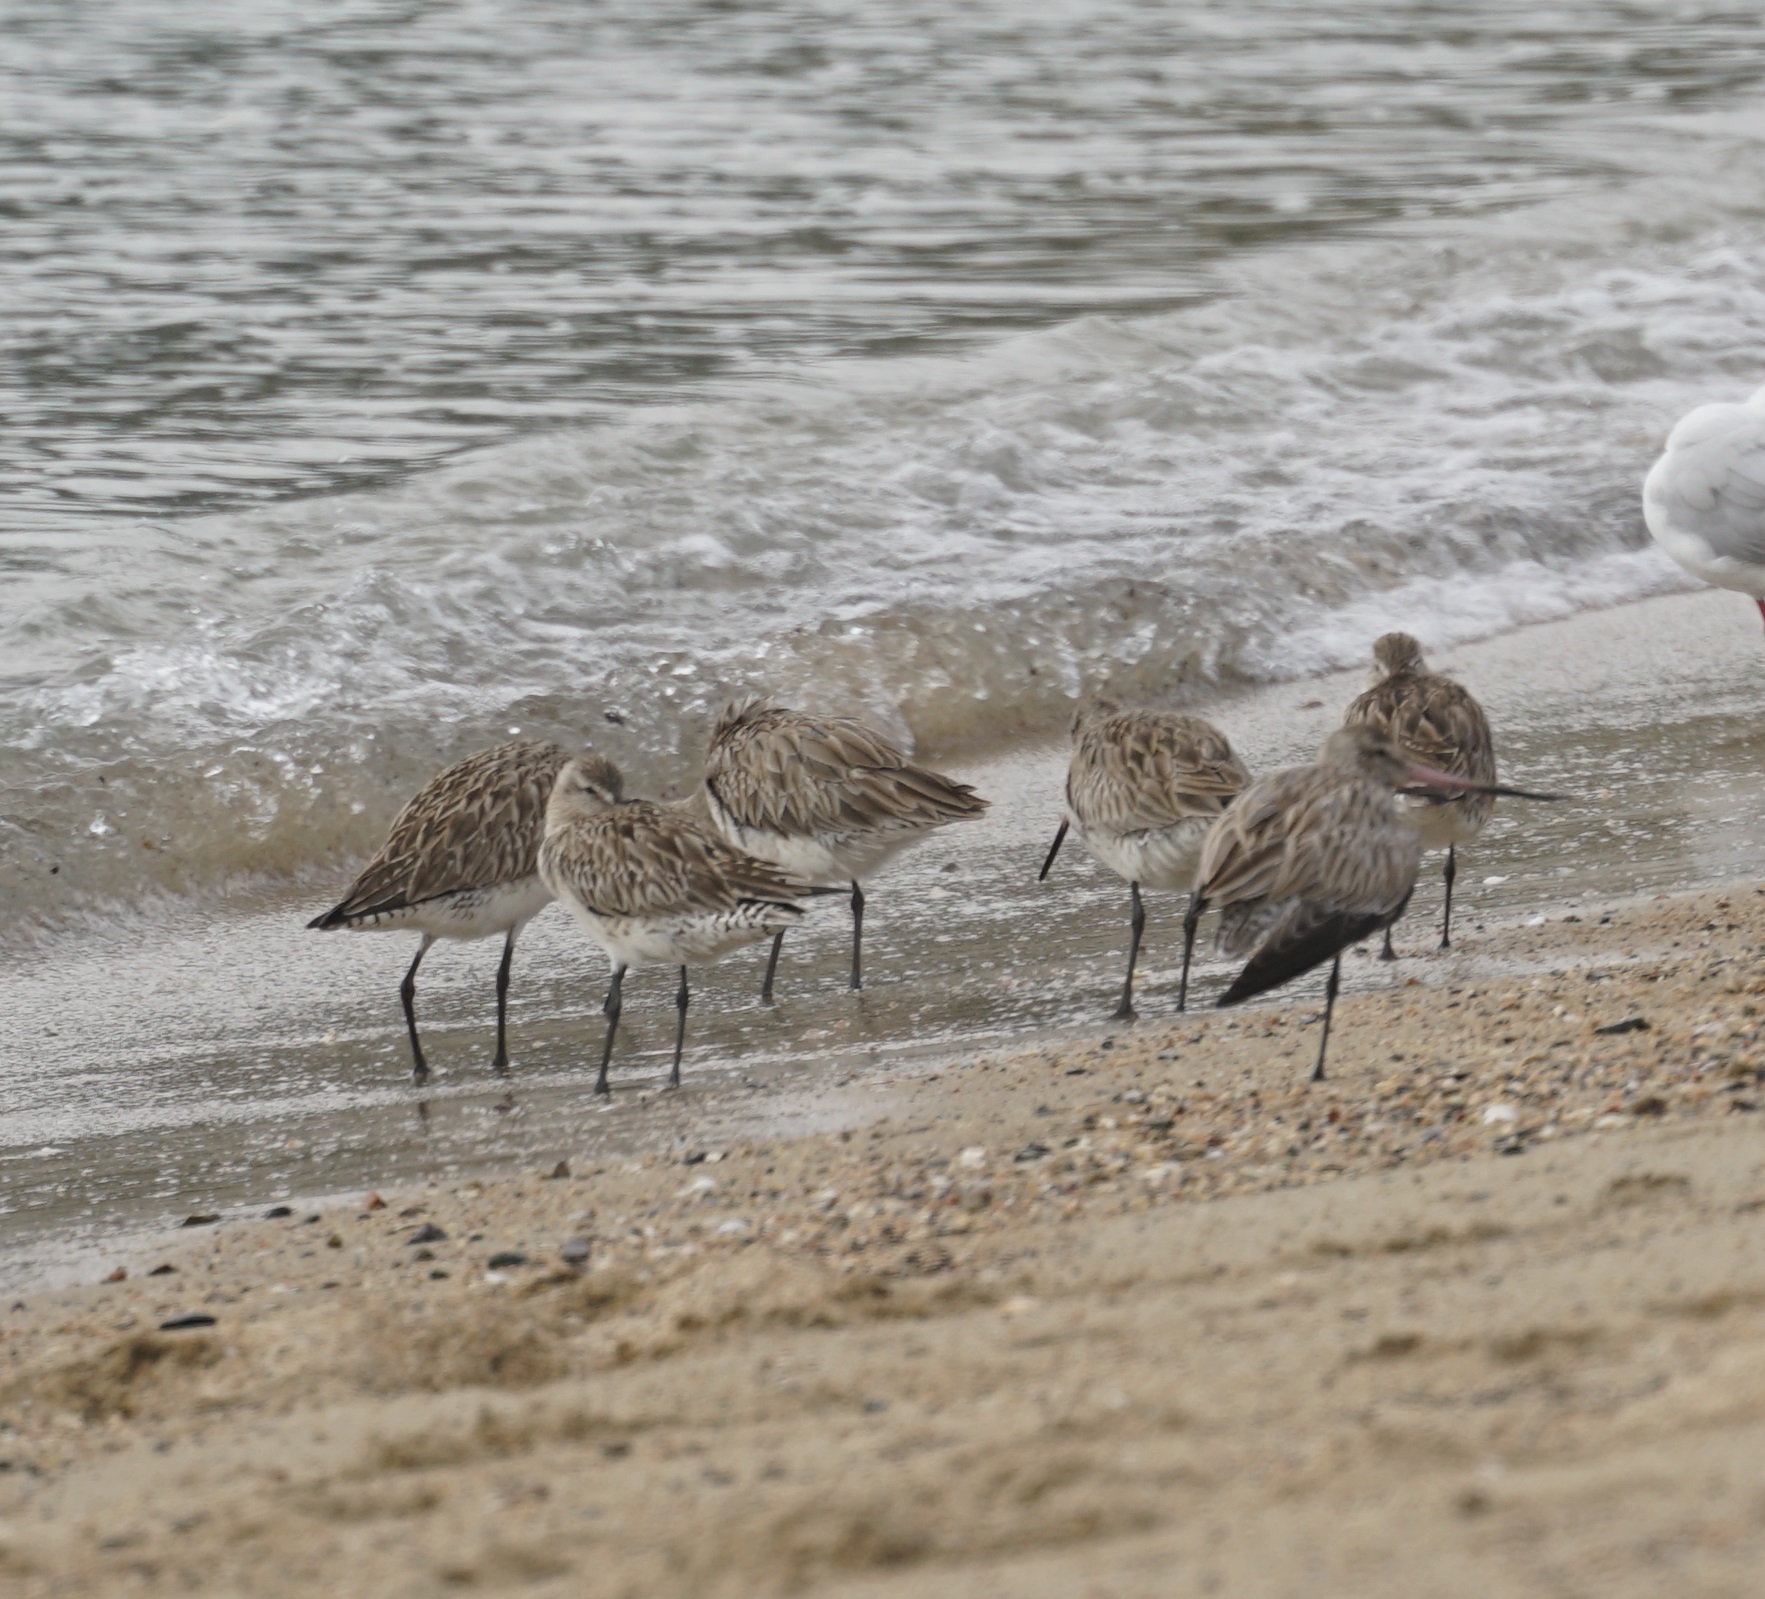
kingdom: Animalia
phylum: Chordata
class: Aves
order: Charadriiformes
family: Scolopacidae
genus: Limosa
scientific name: Limosa lapponica
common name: Bar-tailed godwit
